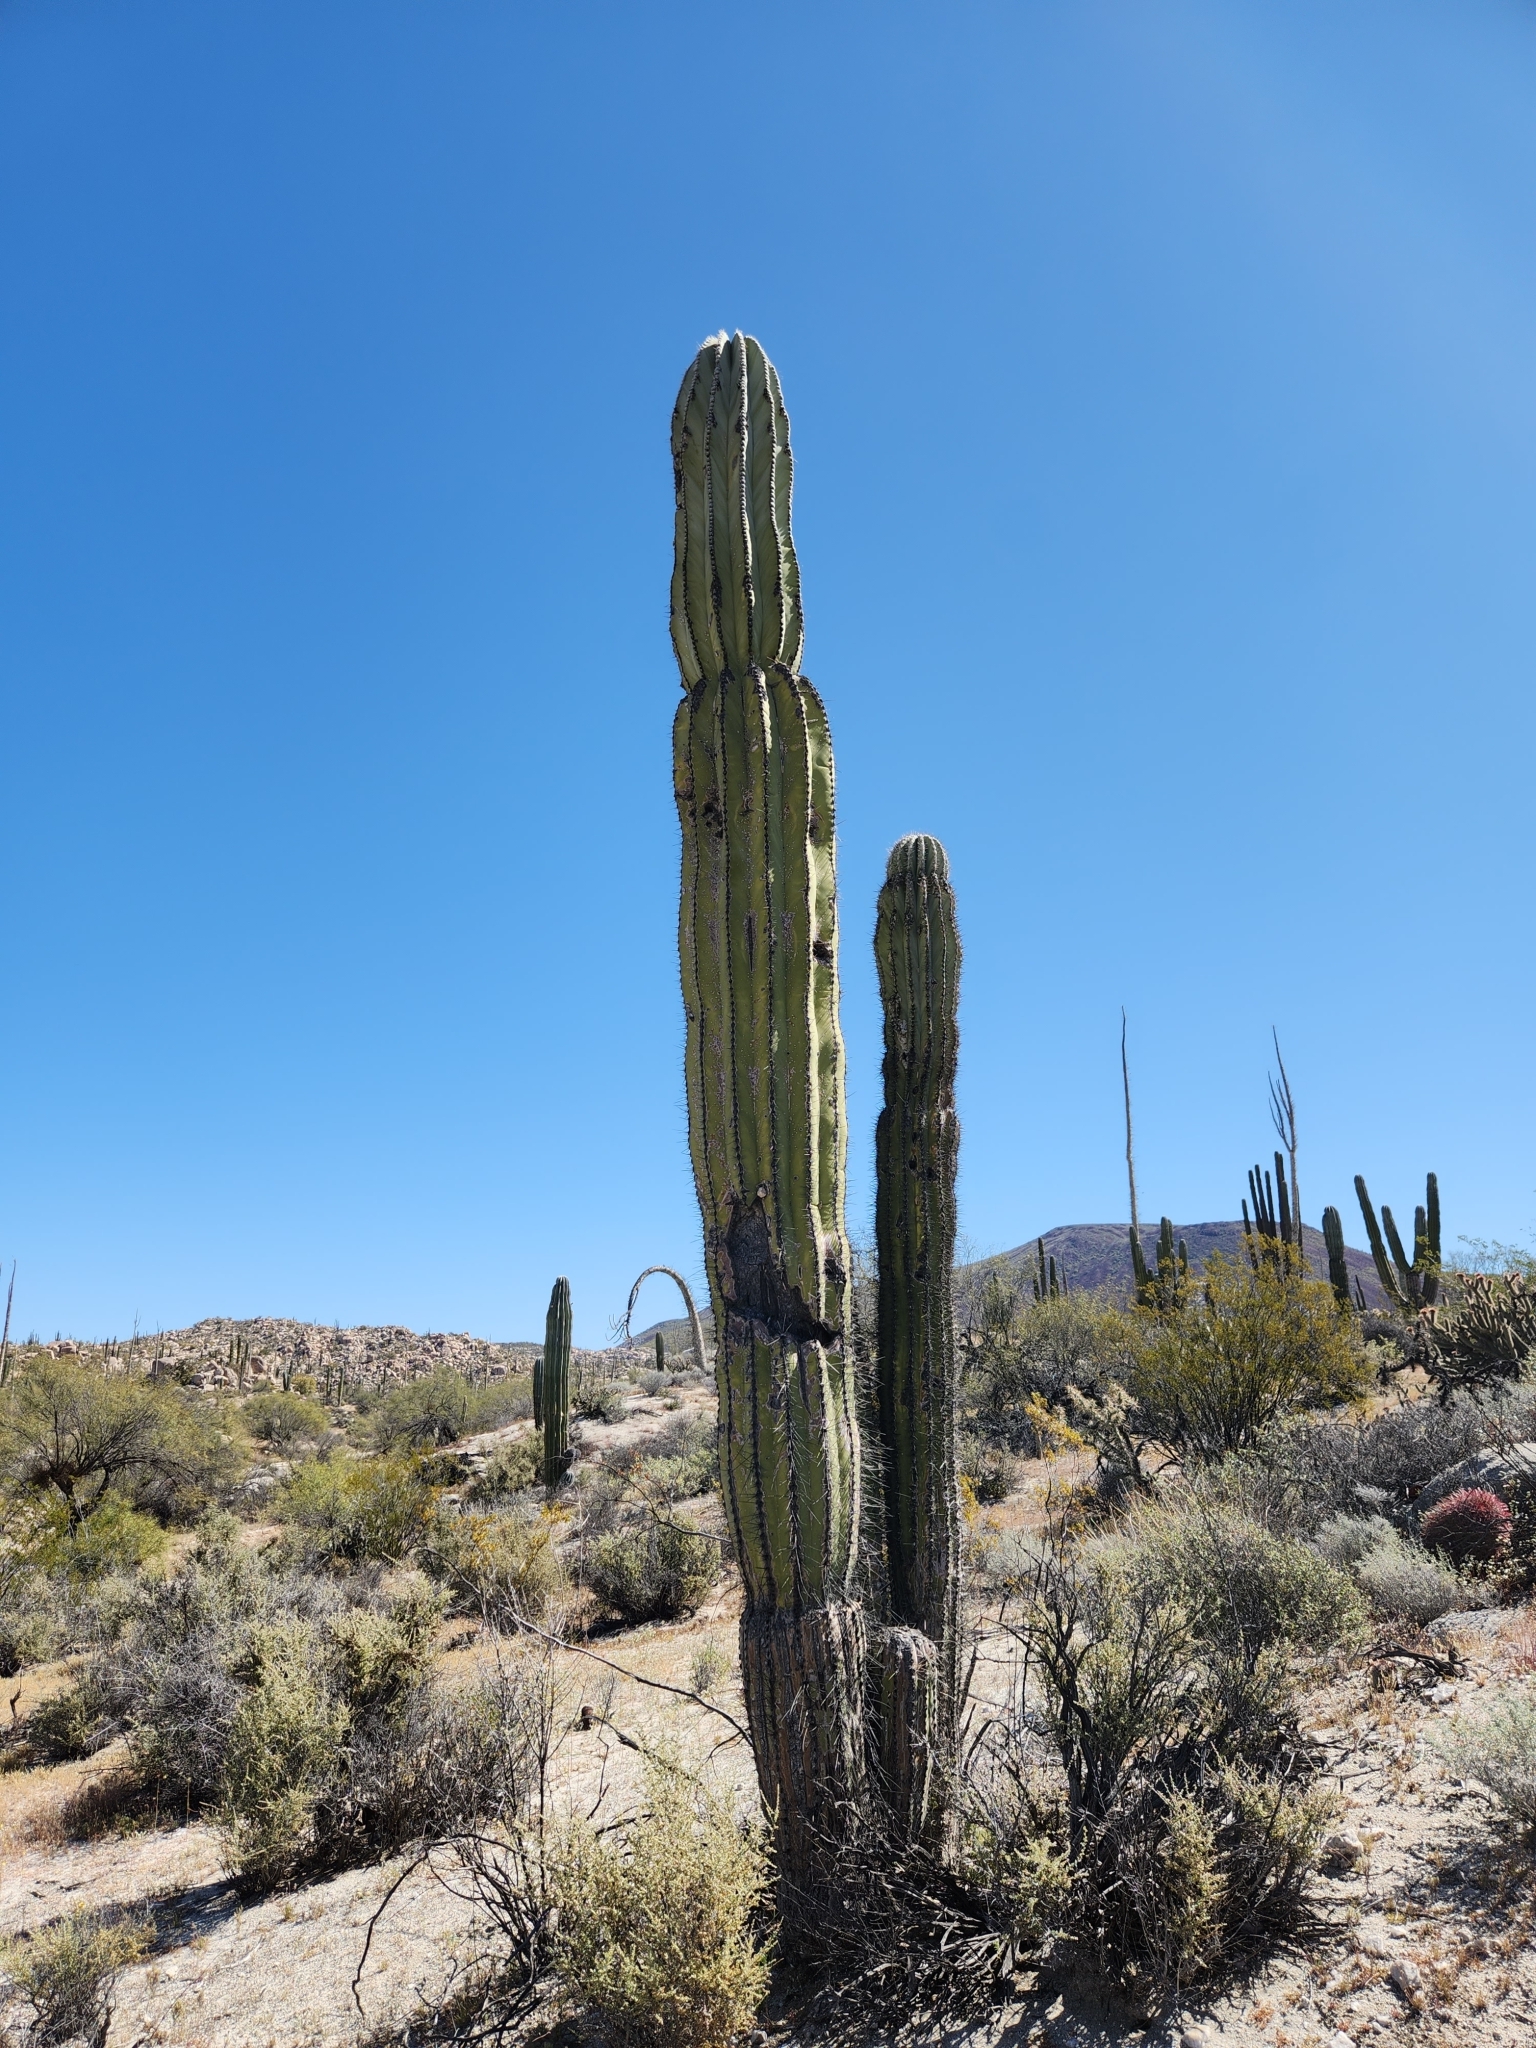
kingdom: Plantae
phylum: Tracheophyta
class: Magnoliopsida
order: Caryophyllales
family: Cactaceae
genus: Pachycereus
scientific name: Pachycereus pringlei
